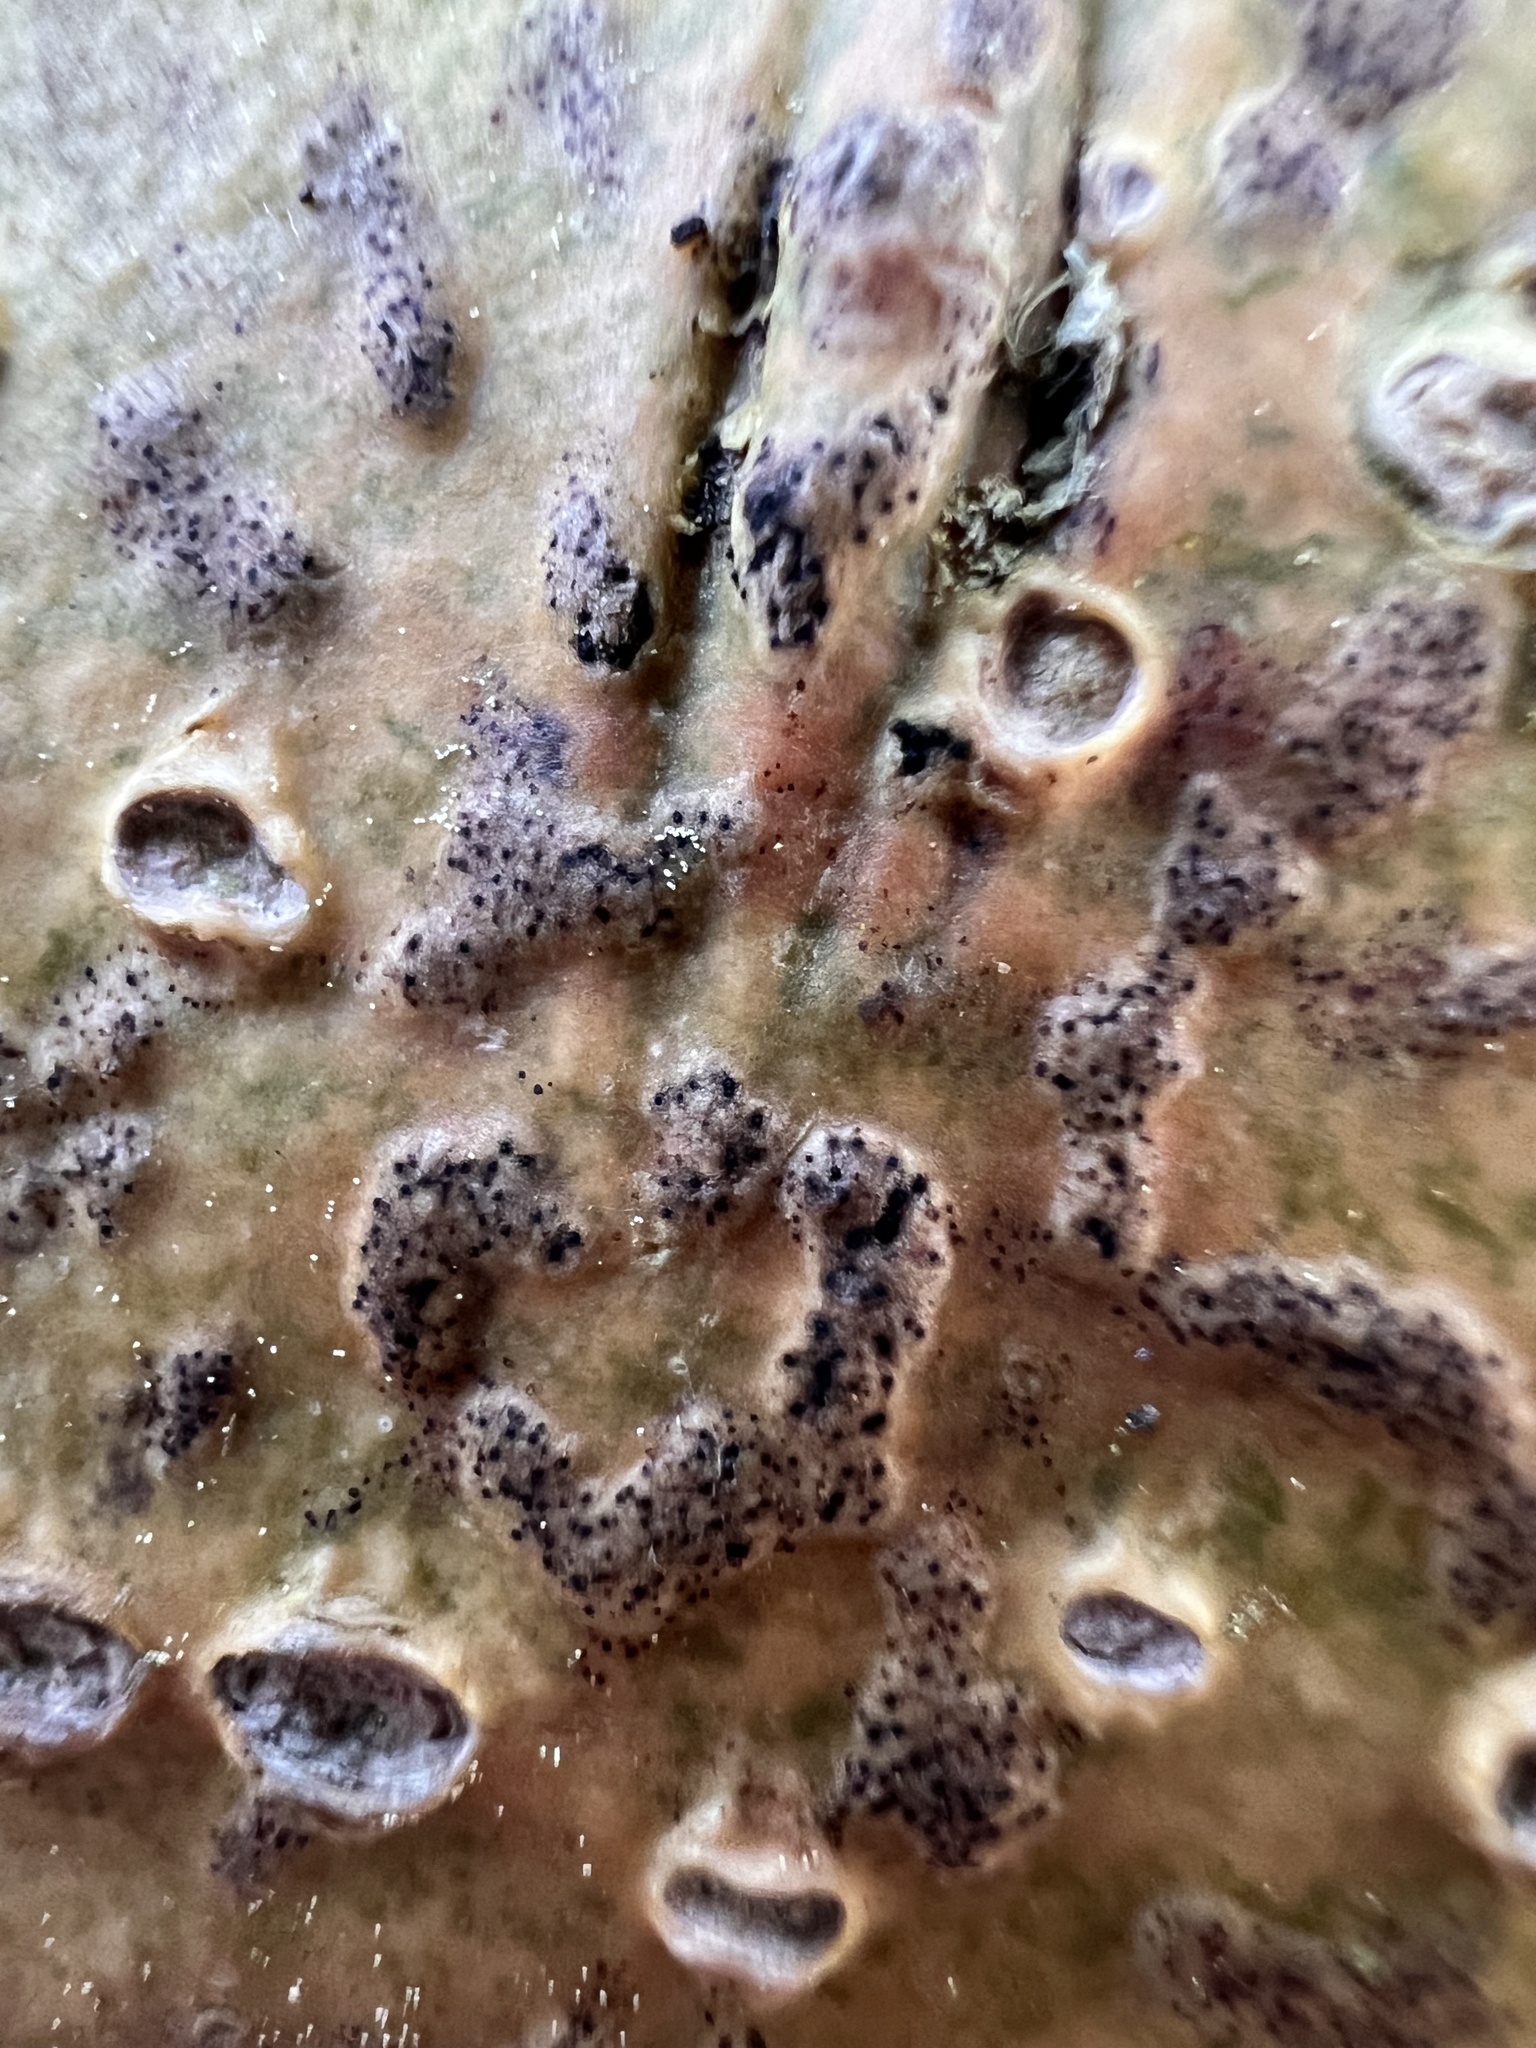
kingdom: Fungi
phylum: Ascomycota
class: Dothideomycetes
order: Trypetheliales
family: Trypetheliaceae
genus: Viridothelium
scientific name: Viridothelium virens
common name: Speckled blister lichen
